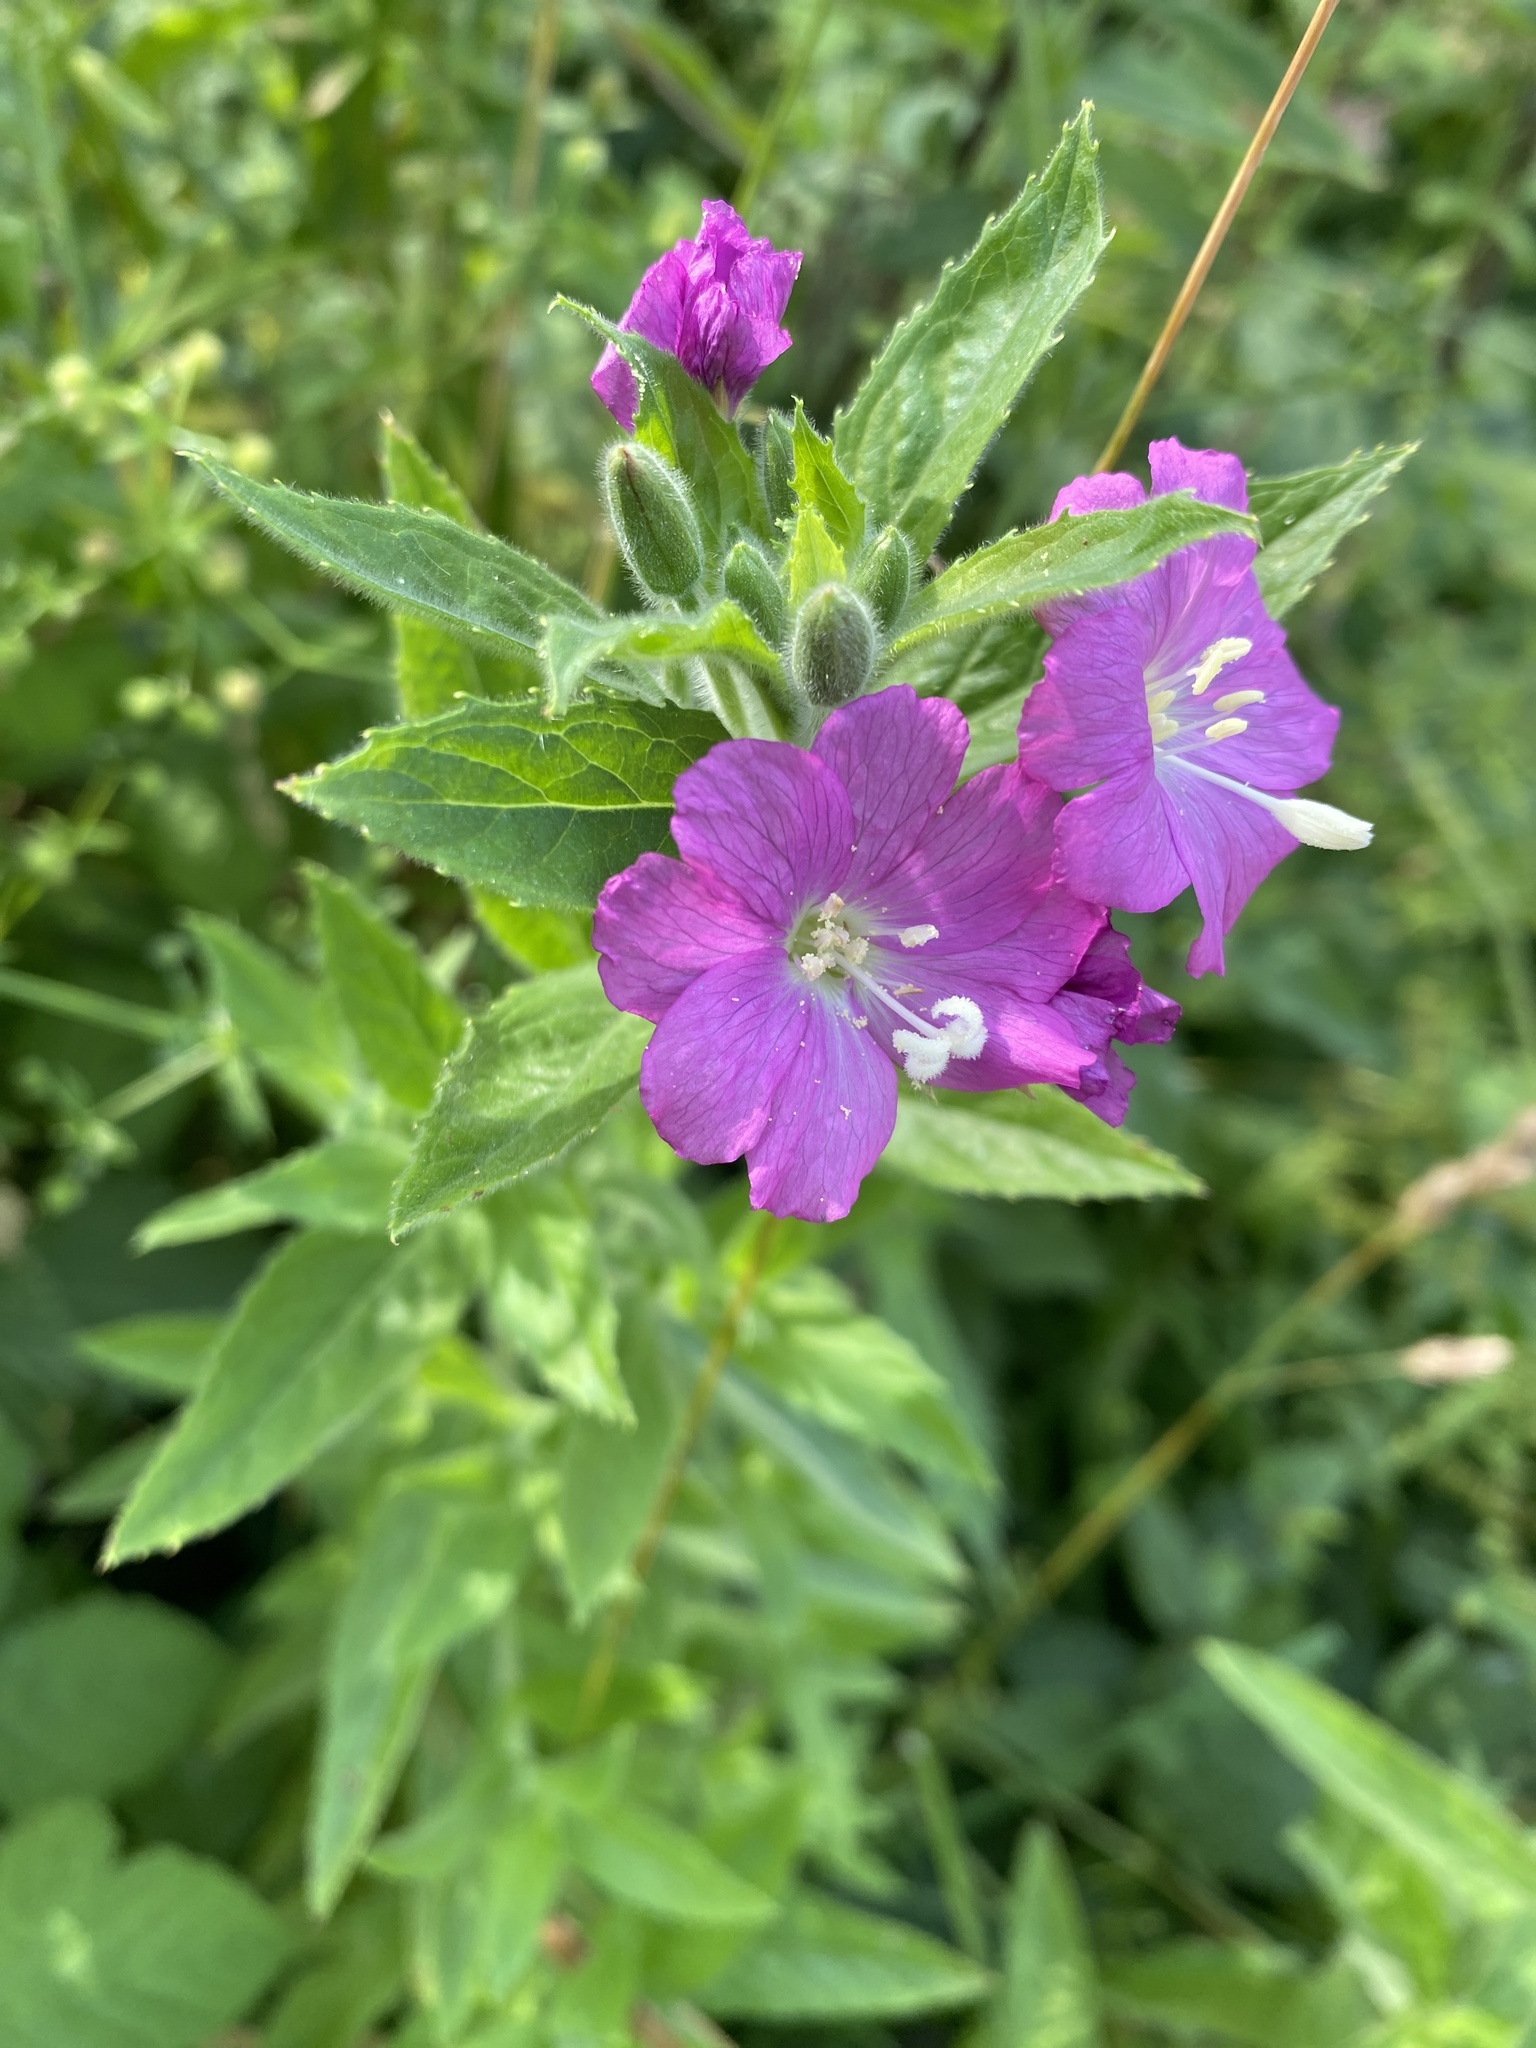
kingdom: Plantae
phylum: Tracheophyta
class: Magnoliopsida
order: Myrtales
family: Onagraceae
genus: Epilobium
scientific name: Epilobium hirsutum
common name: Great willowherb
